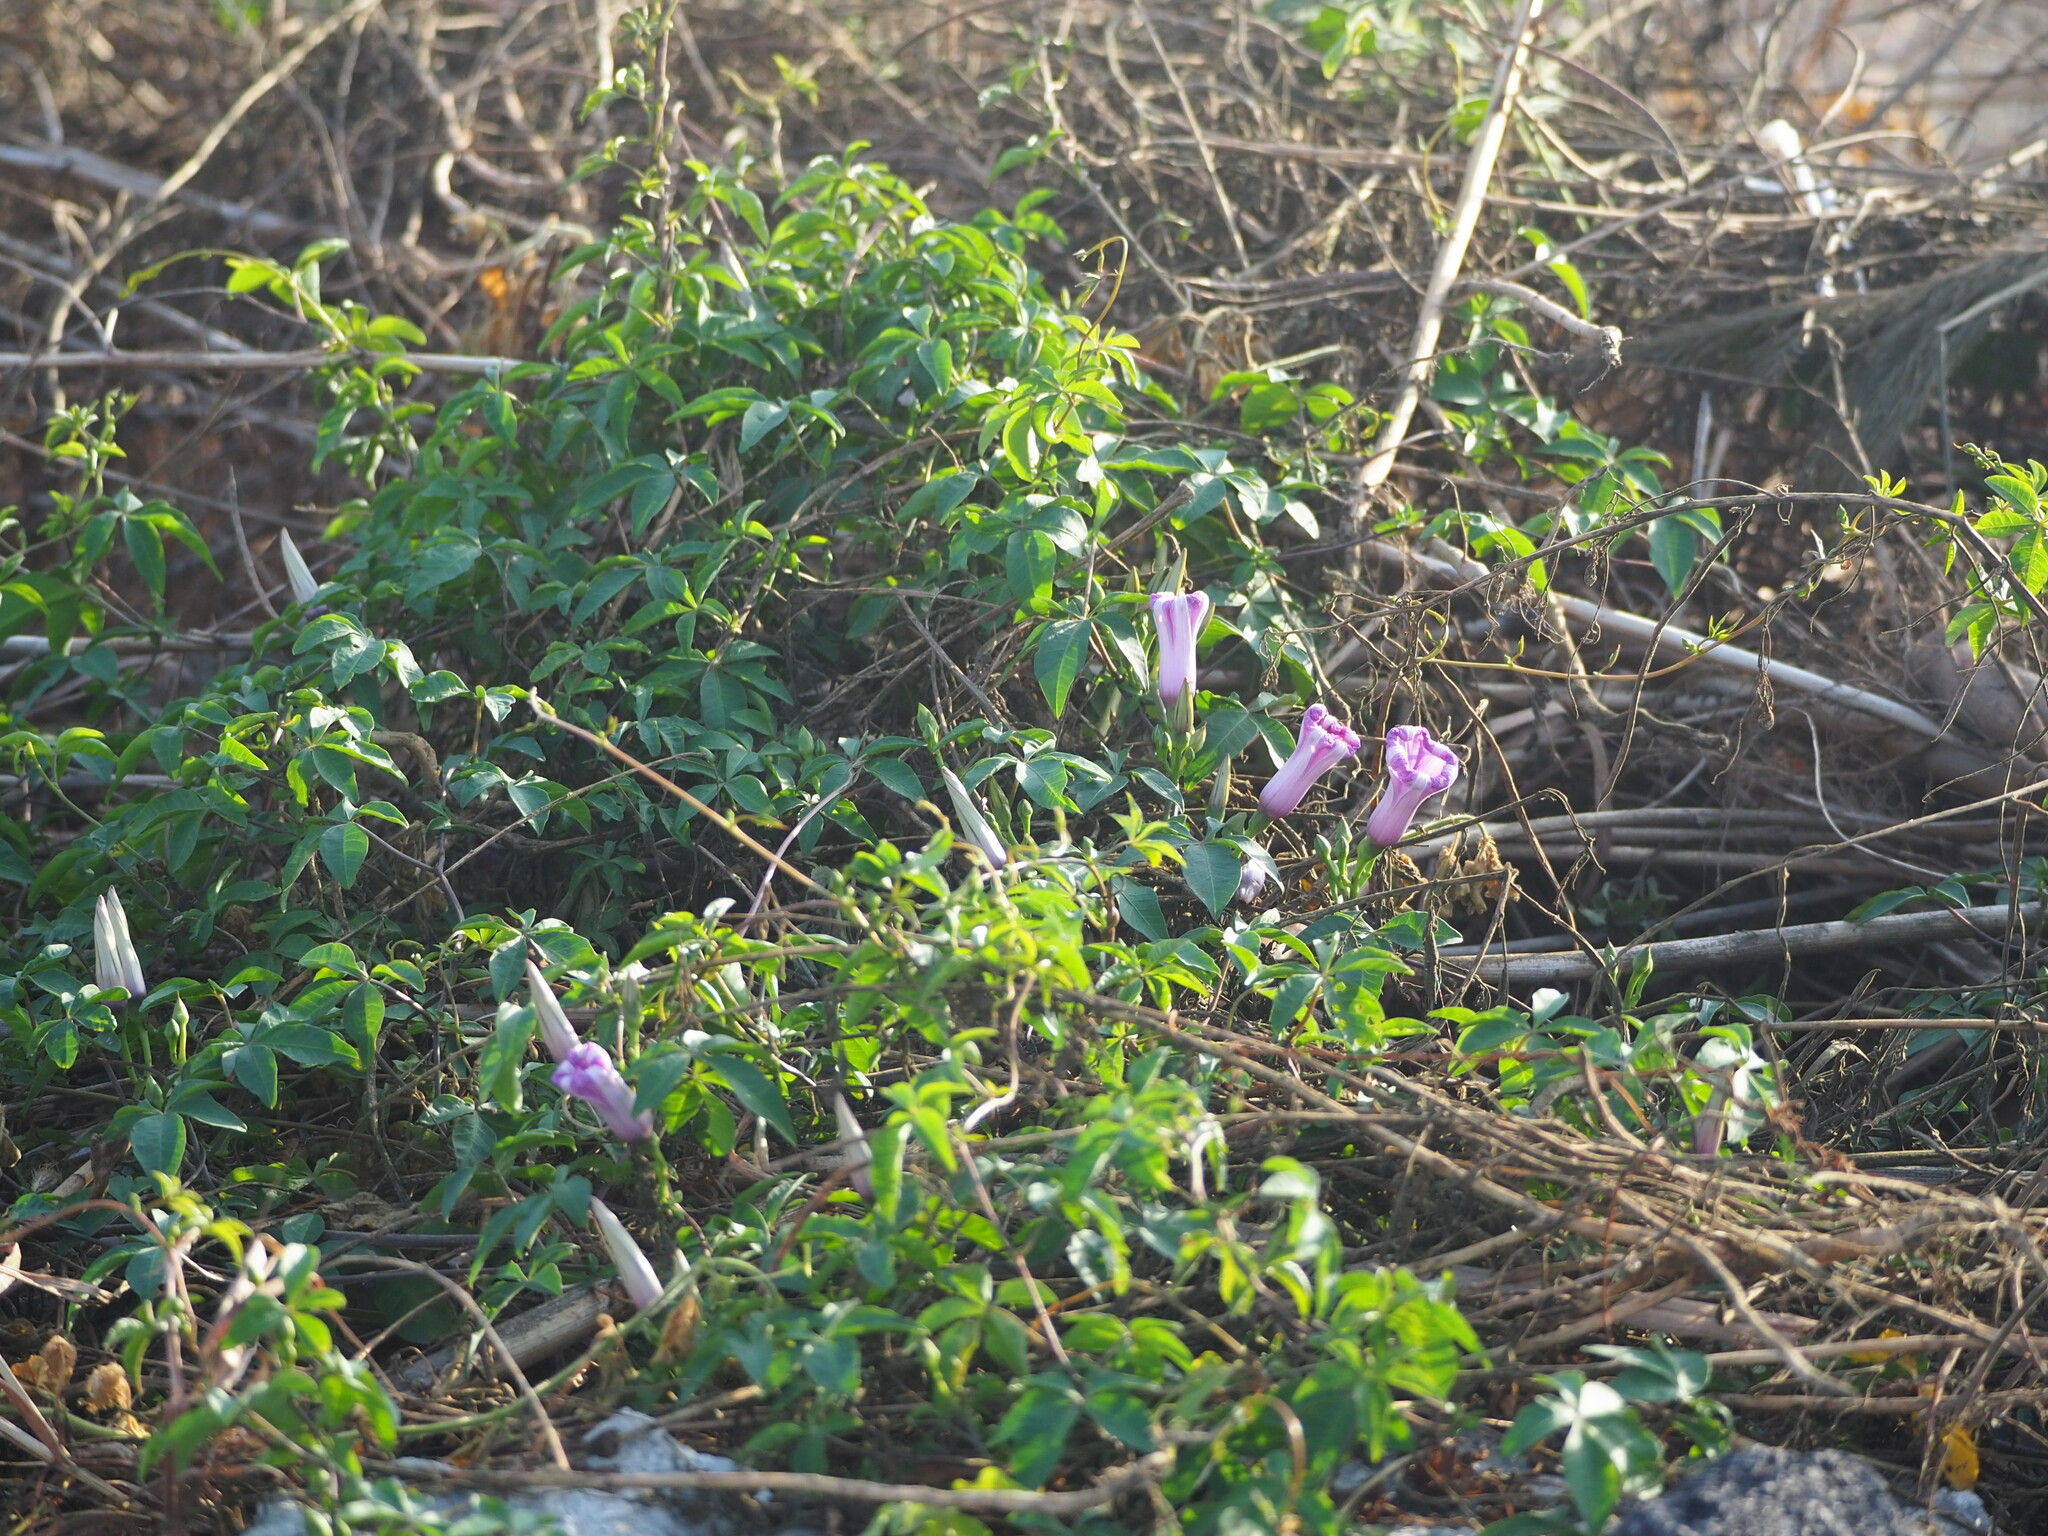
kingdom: Plantae
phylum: Tracheophyta
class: Magnoliopsida
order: Solanales
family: Convolvulaceae
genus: Ipomoea
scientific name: Ipomoea cairica
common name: Mile a minute vine
